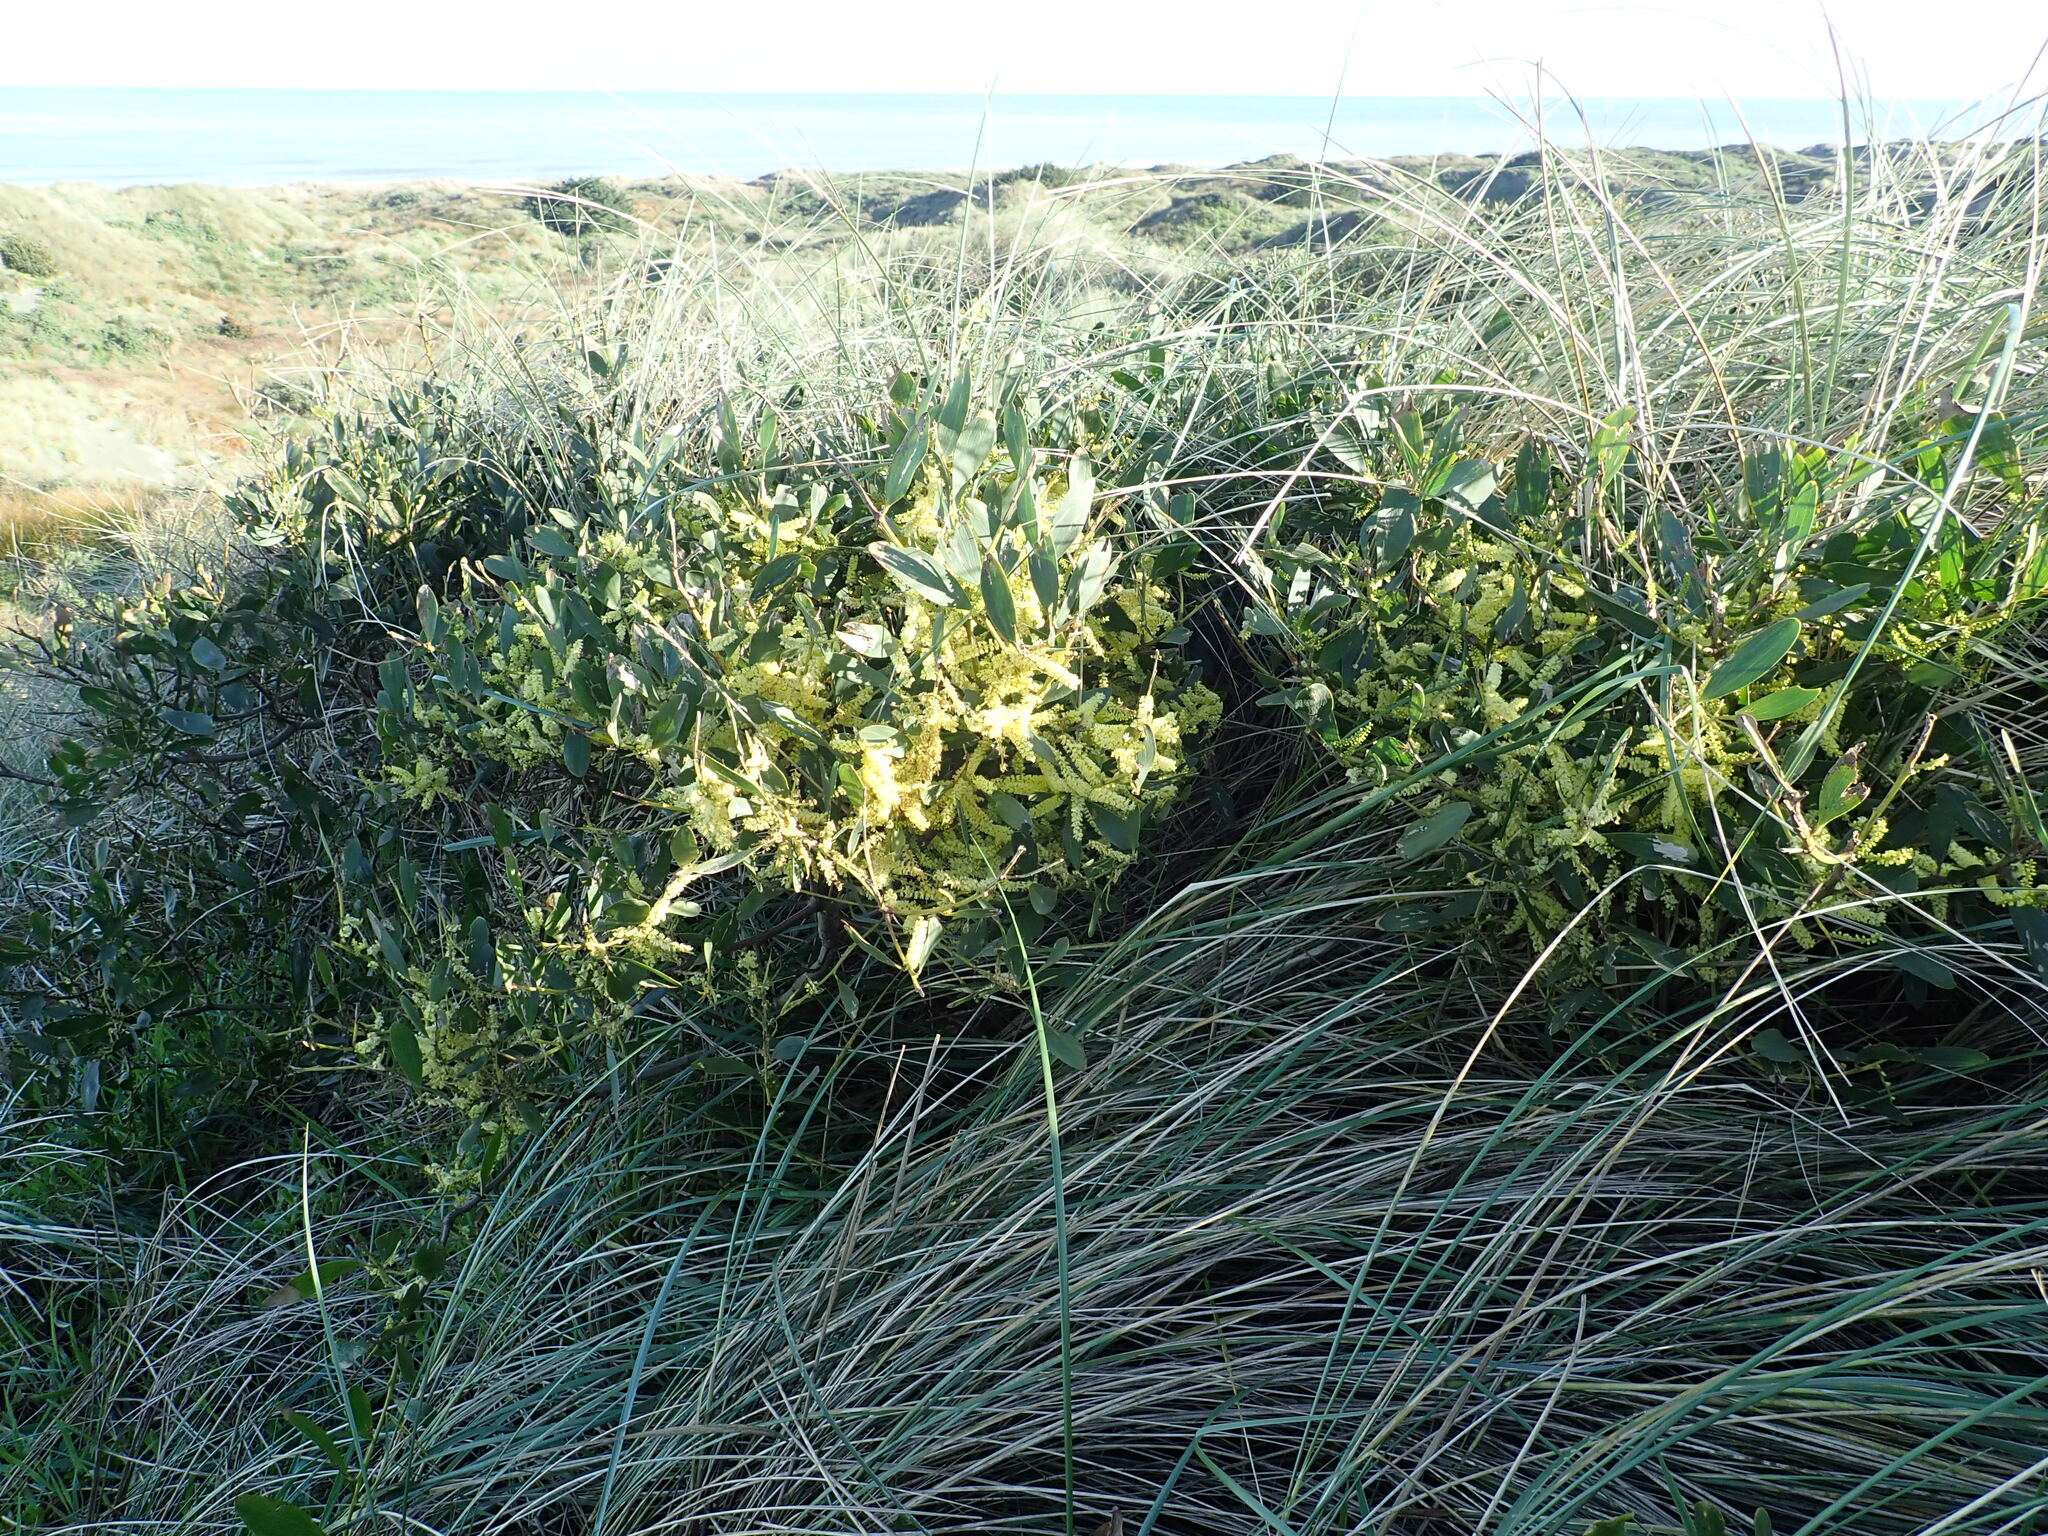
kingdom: Plantae
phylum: Tracheophyta
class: Magnoliopsida
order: Fabales
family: Fabaceae
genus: Acacia
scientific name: Acacia longifolia
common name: Sydney golden wattle
